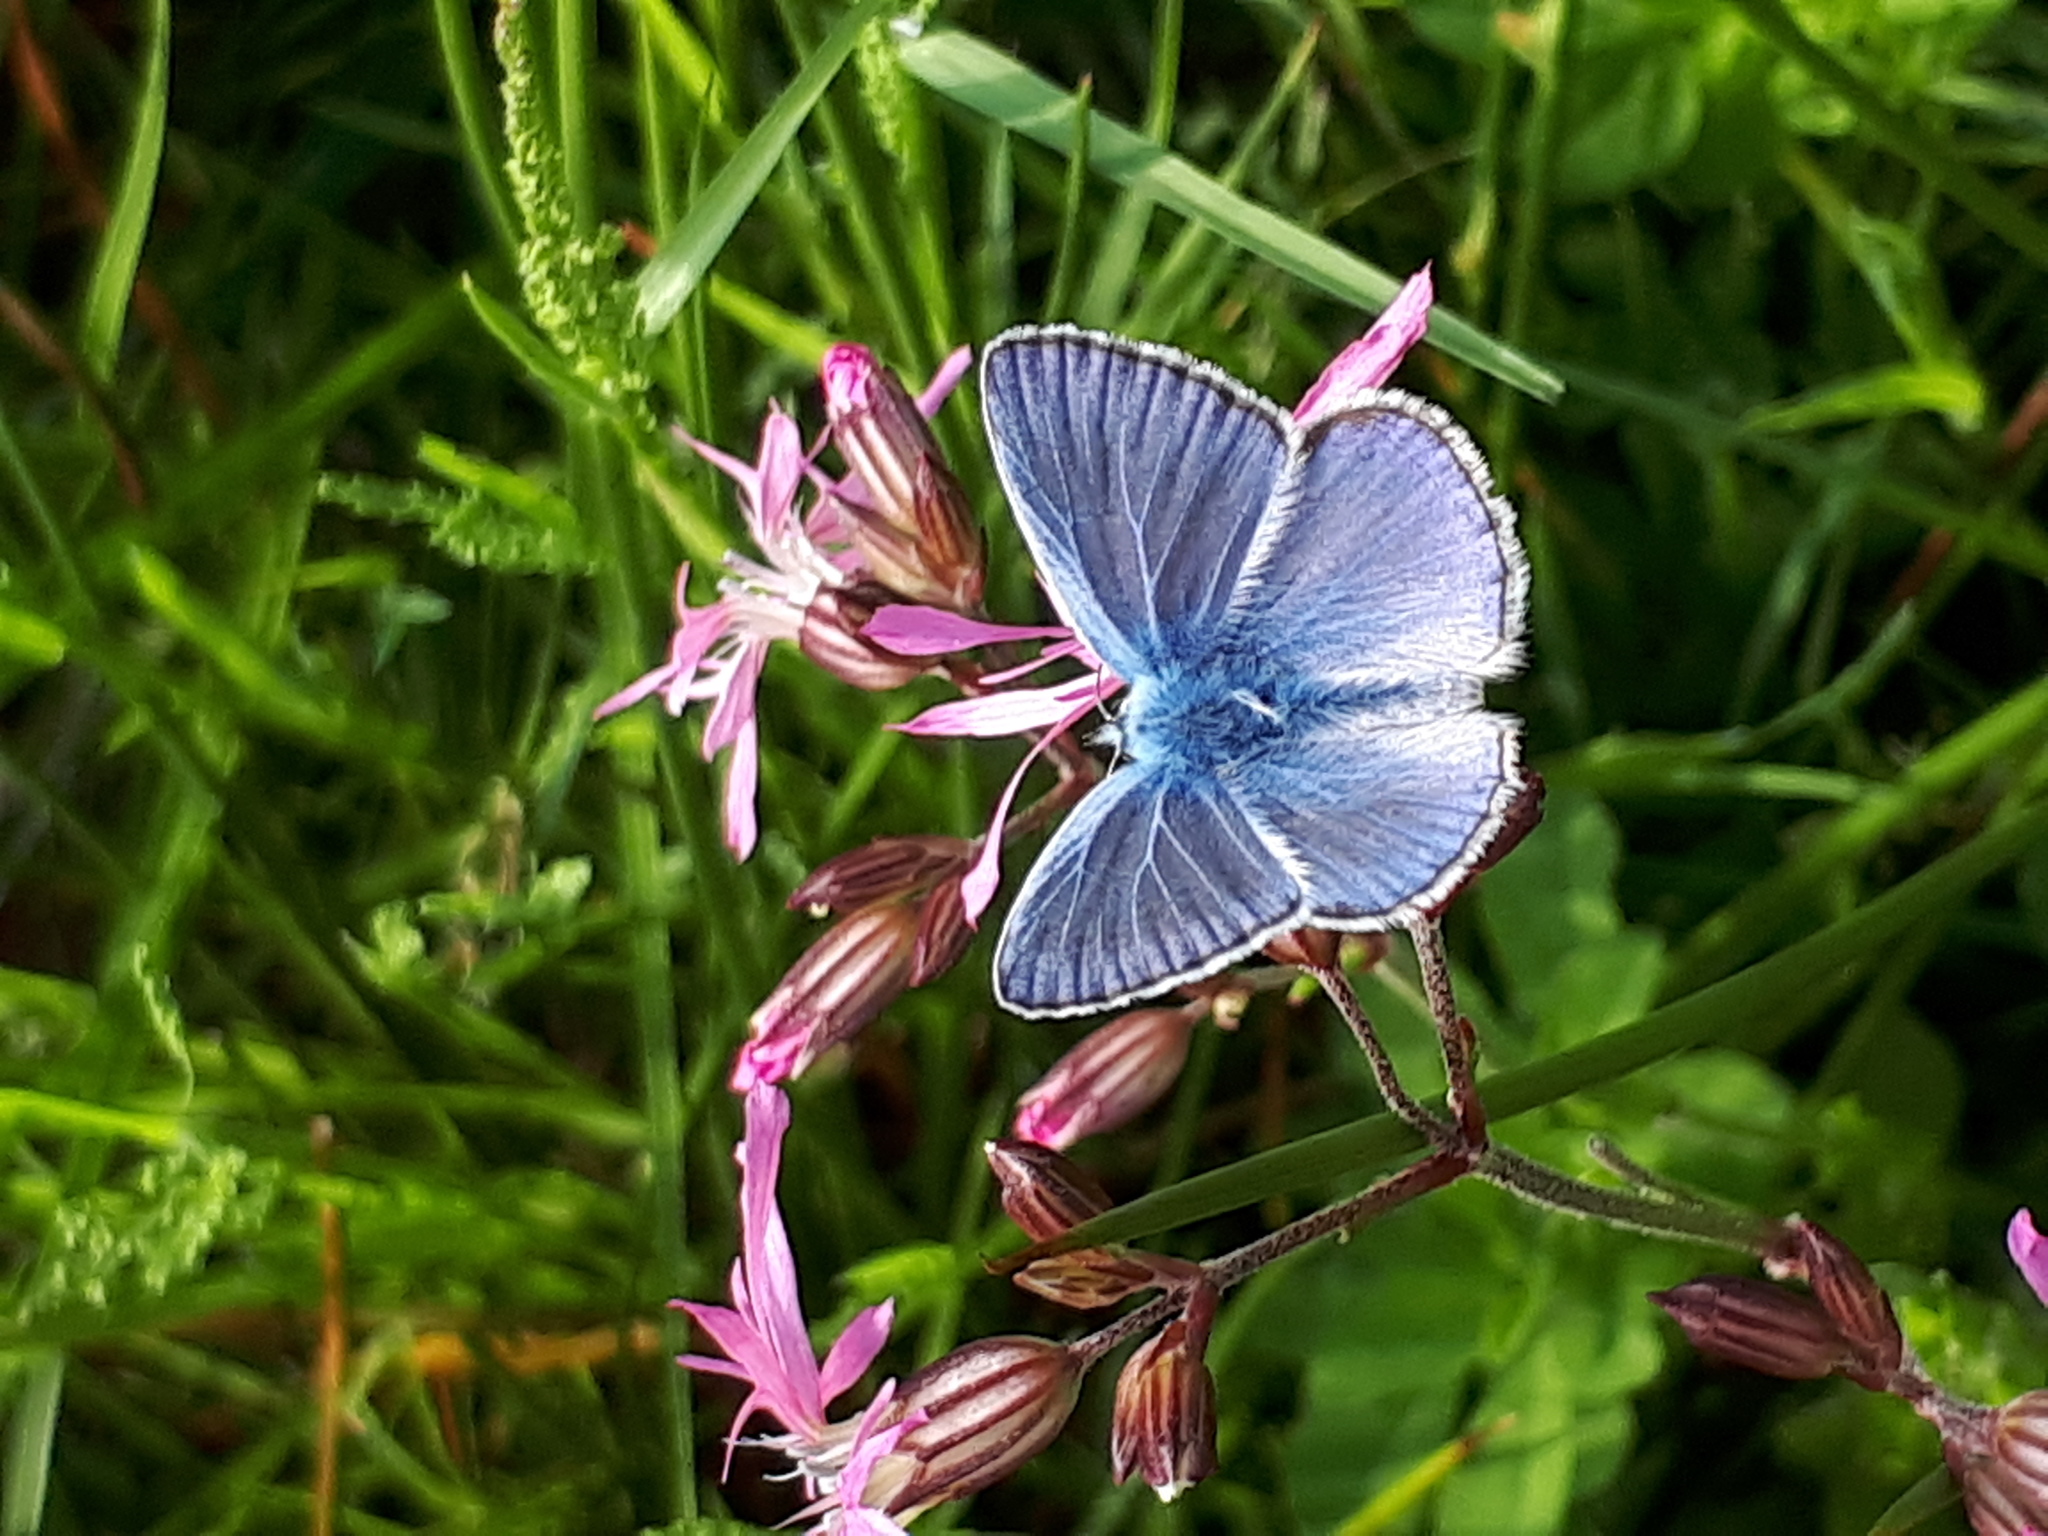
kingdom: Animalia
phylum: Arthropoda
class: Insecta
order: Lepidoptera
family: Lycaenidae
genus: Polyommatus
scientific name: Polyommatus icarus
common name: Common blue
